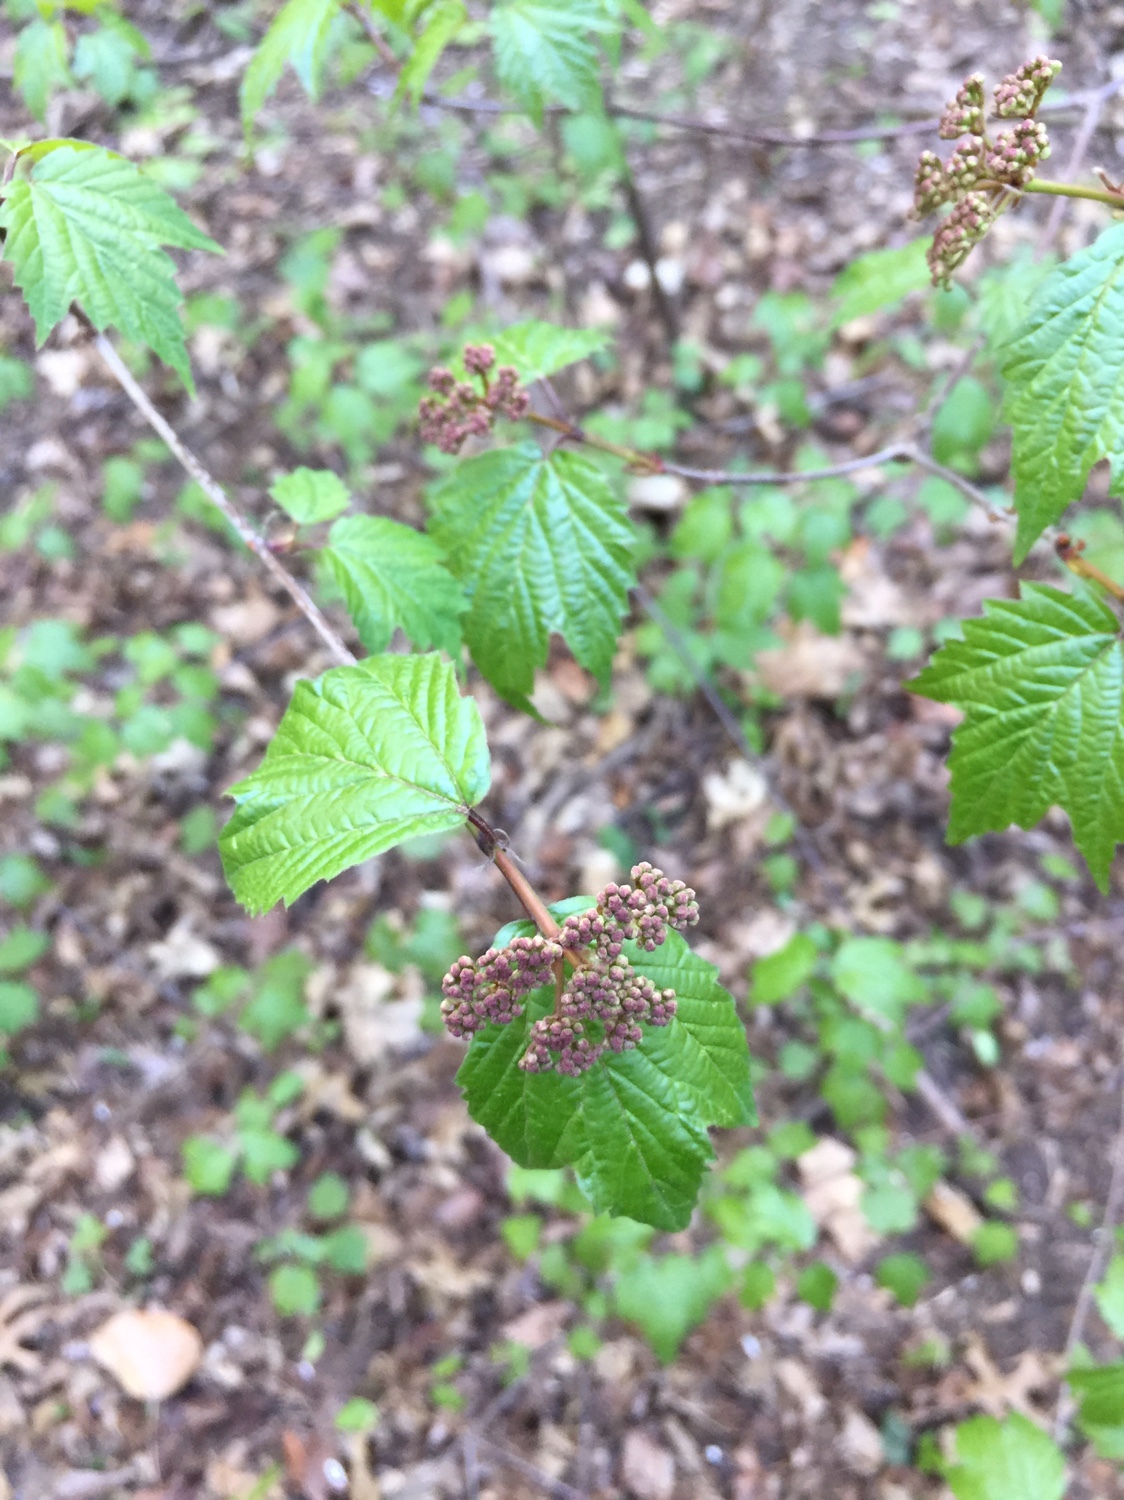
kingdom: Plantae
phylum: Tracheophyta
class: Magnoliopsida
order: Dipsacales
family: Viburnaceae
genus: Viburnum
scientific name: Viburnum acerifolium
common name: Dockmackie
